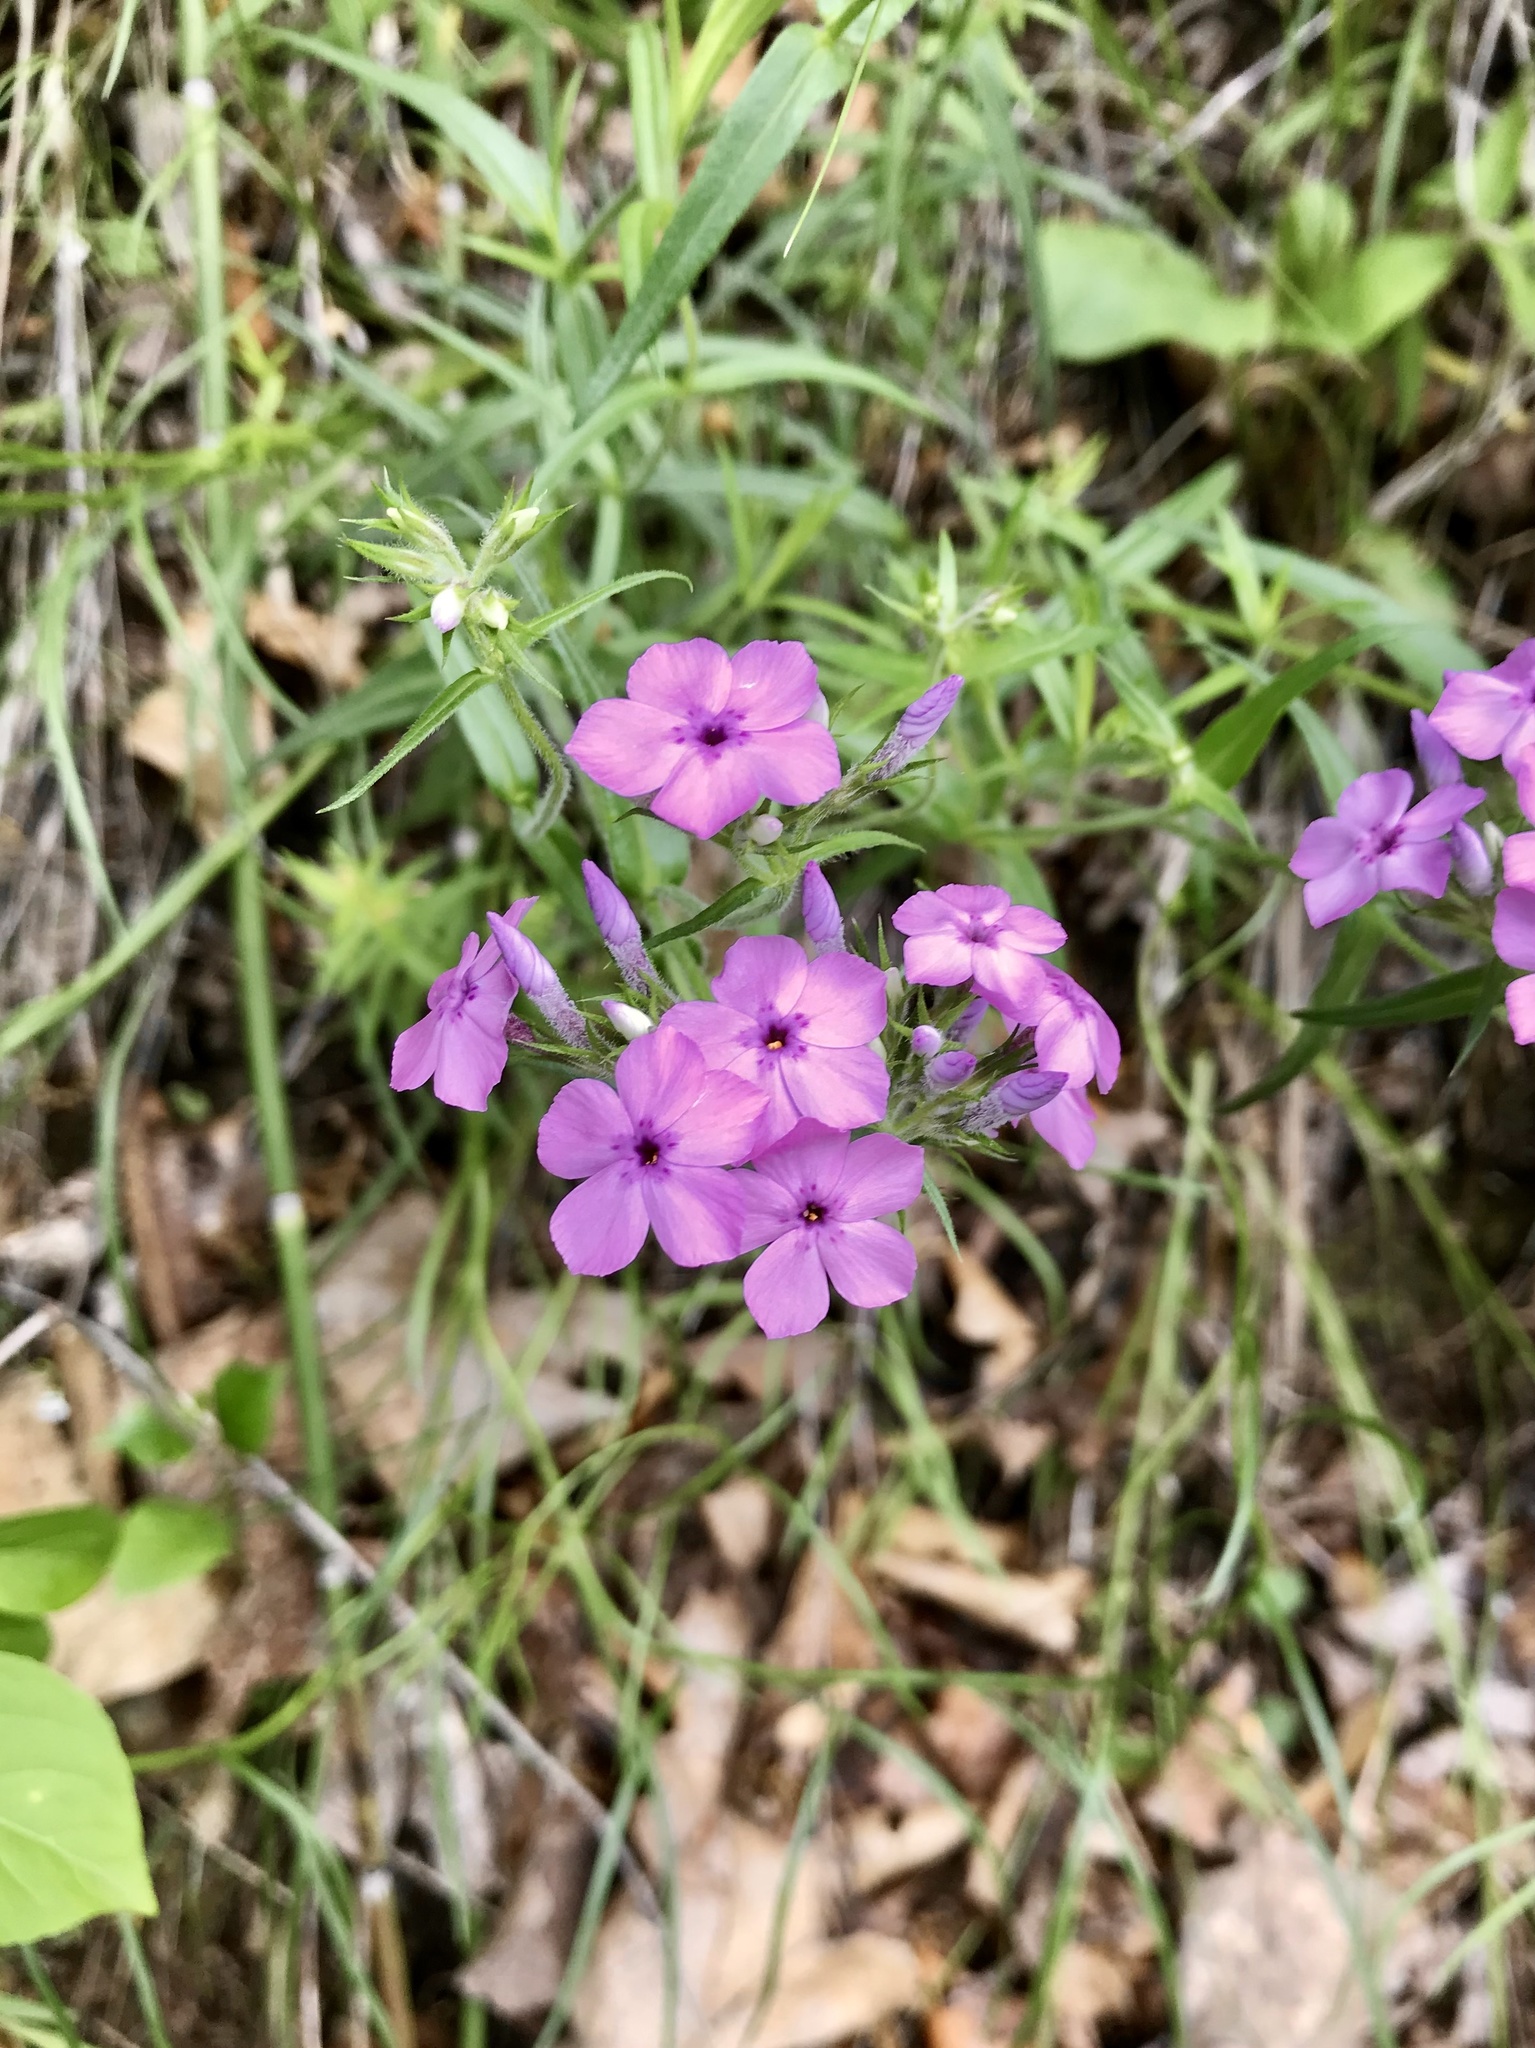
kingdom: Plantae
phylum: Tracheophyta
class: Magnoliopsida
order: Ericales
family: Polemoniaceae
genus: Phlox
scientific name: Phlox pilosa
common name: Prairie phlox
